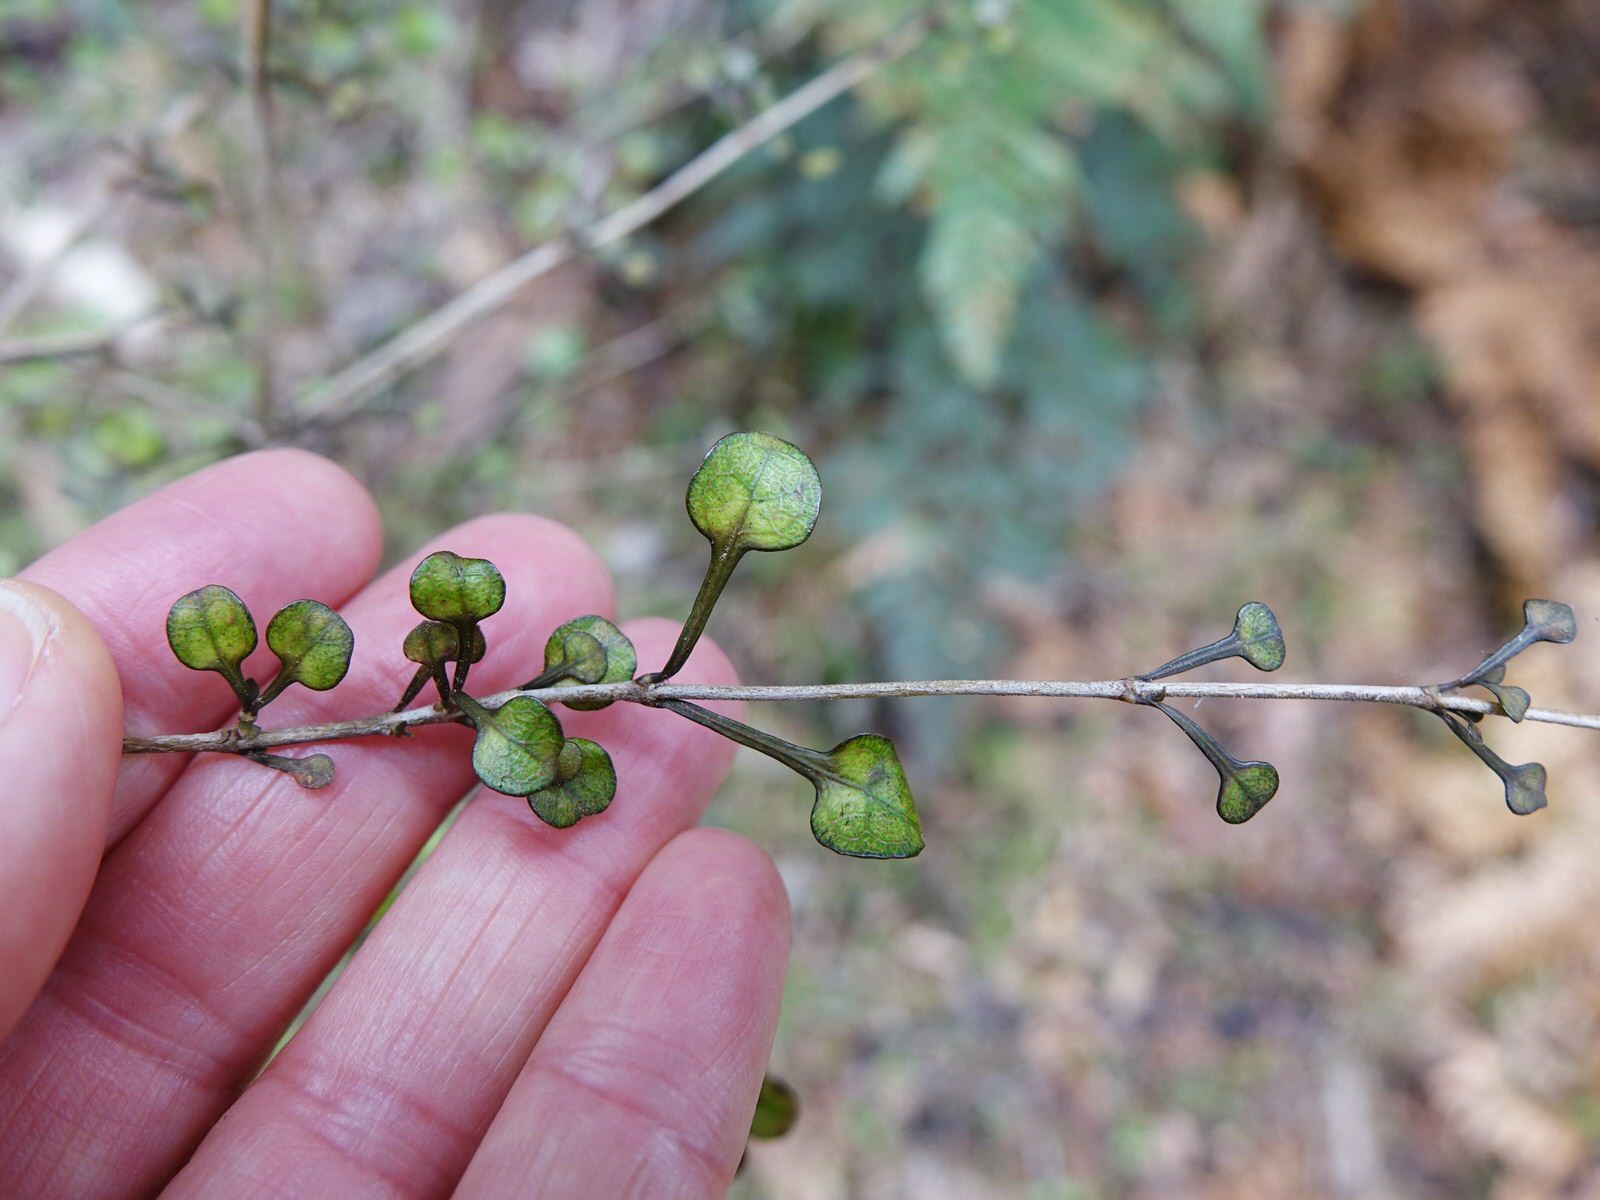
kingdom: Plantae
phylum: Tracheophyta
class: Magnoliopsida
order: Gentianales
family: Rubiaceae
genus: Coprosma
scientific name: Coprosma spathulata
